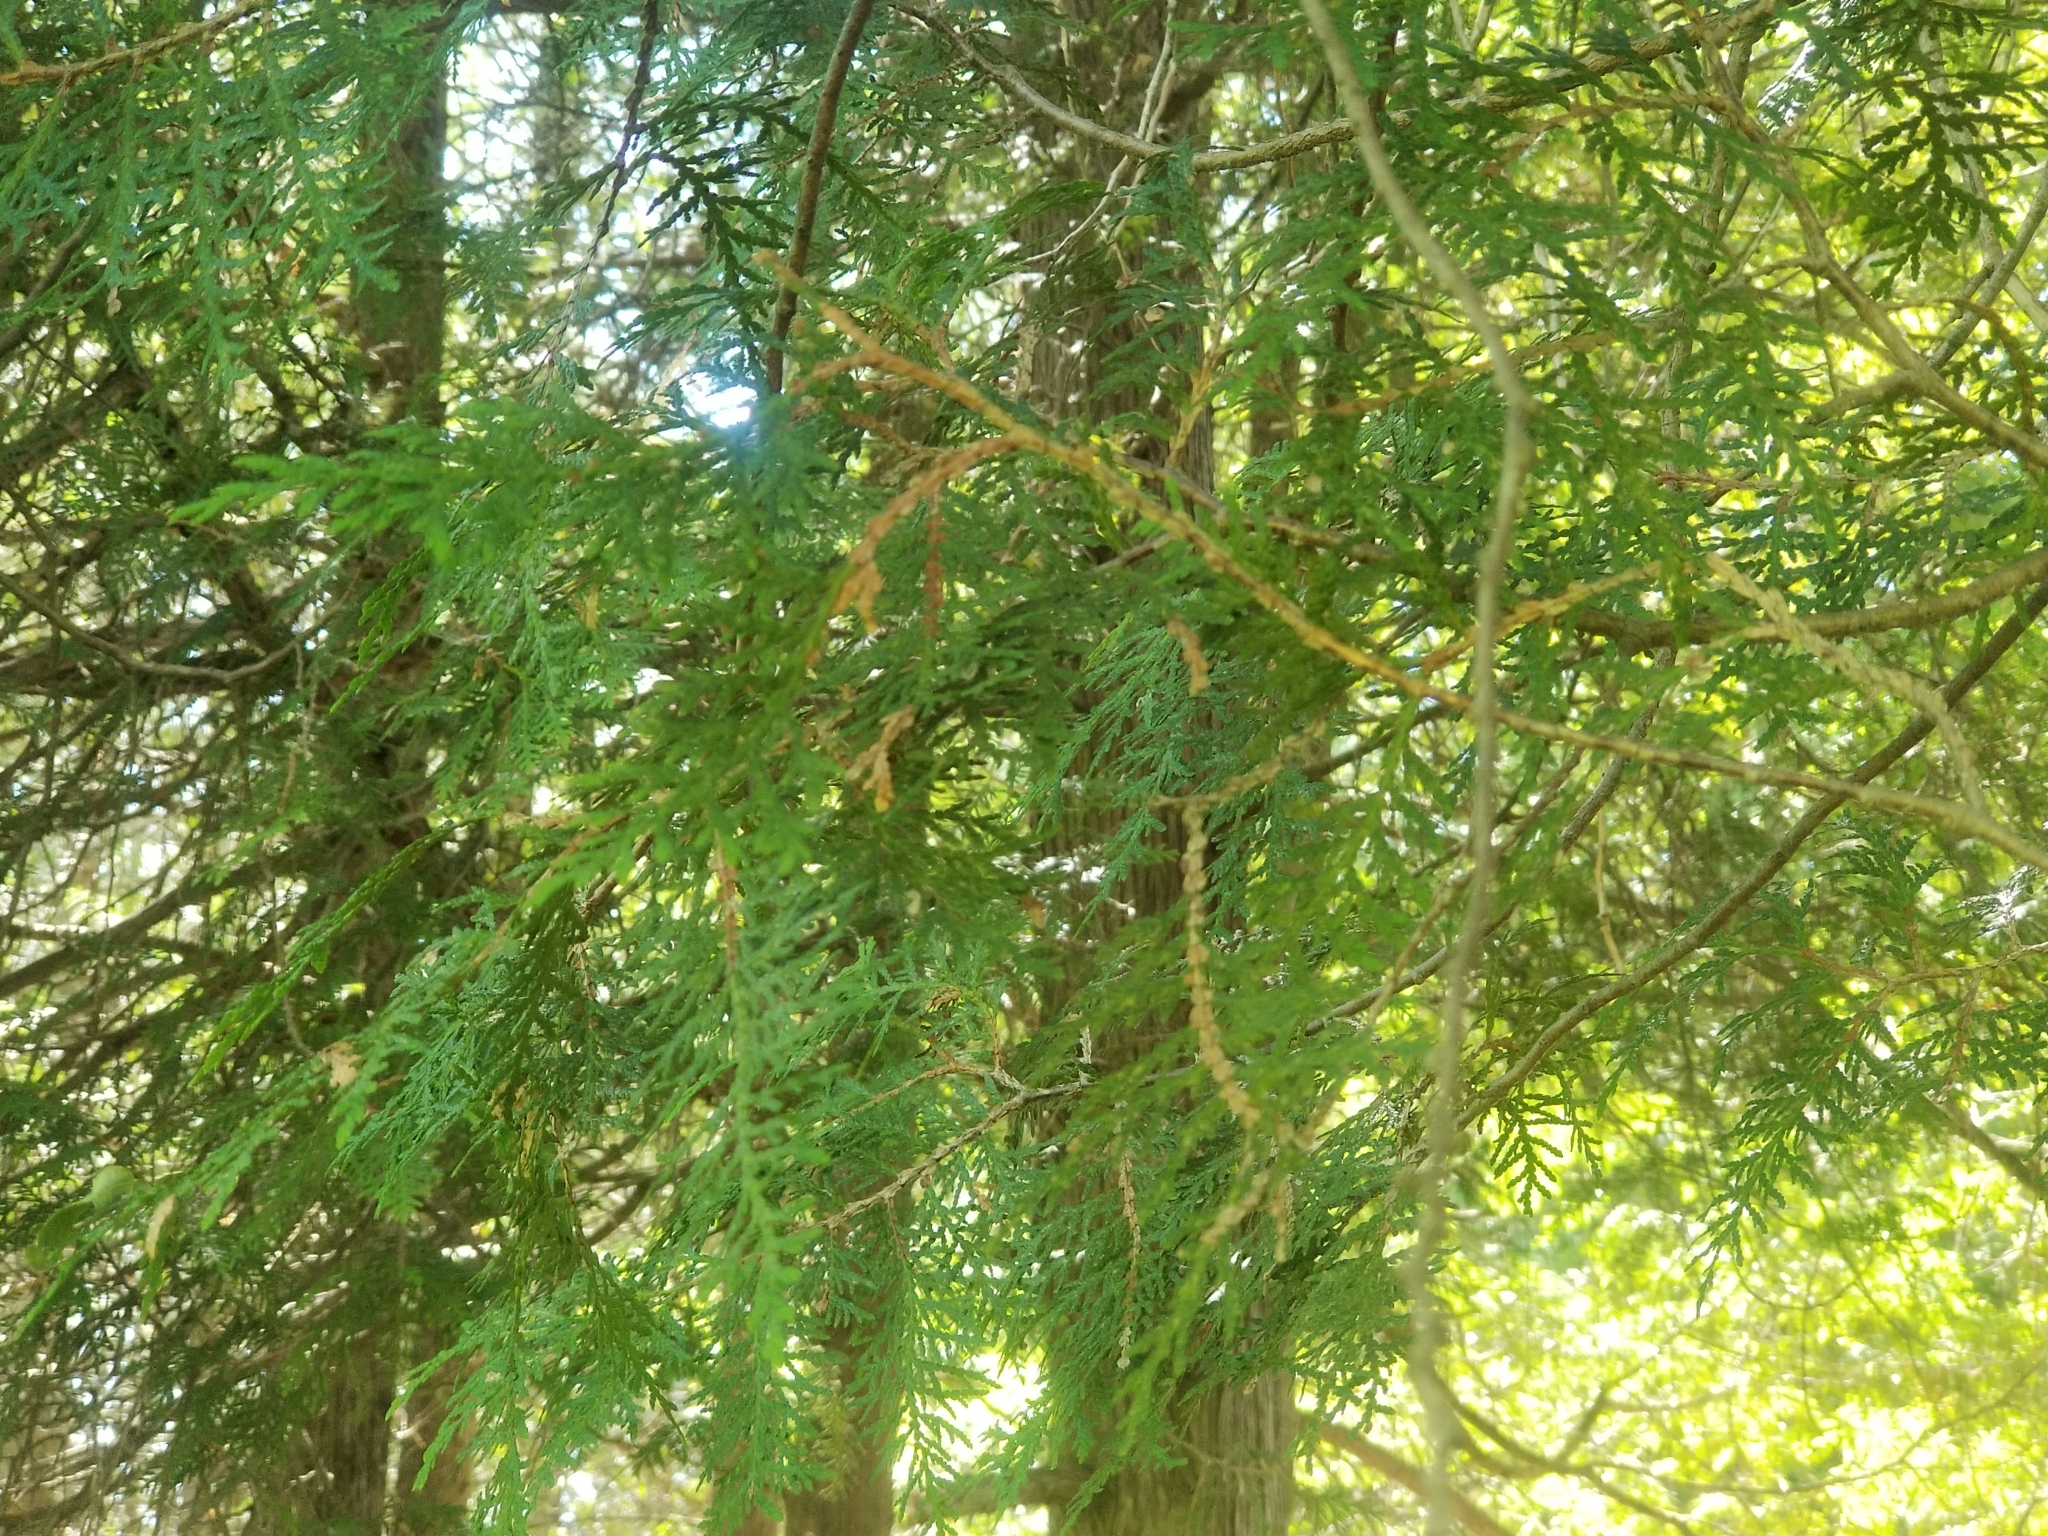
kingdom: Plantae
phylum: Tracheophyta
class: Pinopsida
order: Pinales
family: Cupressaceae
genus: Thuja
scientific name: Thuja occidentalis
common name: Northern white-cedar
